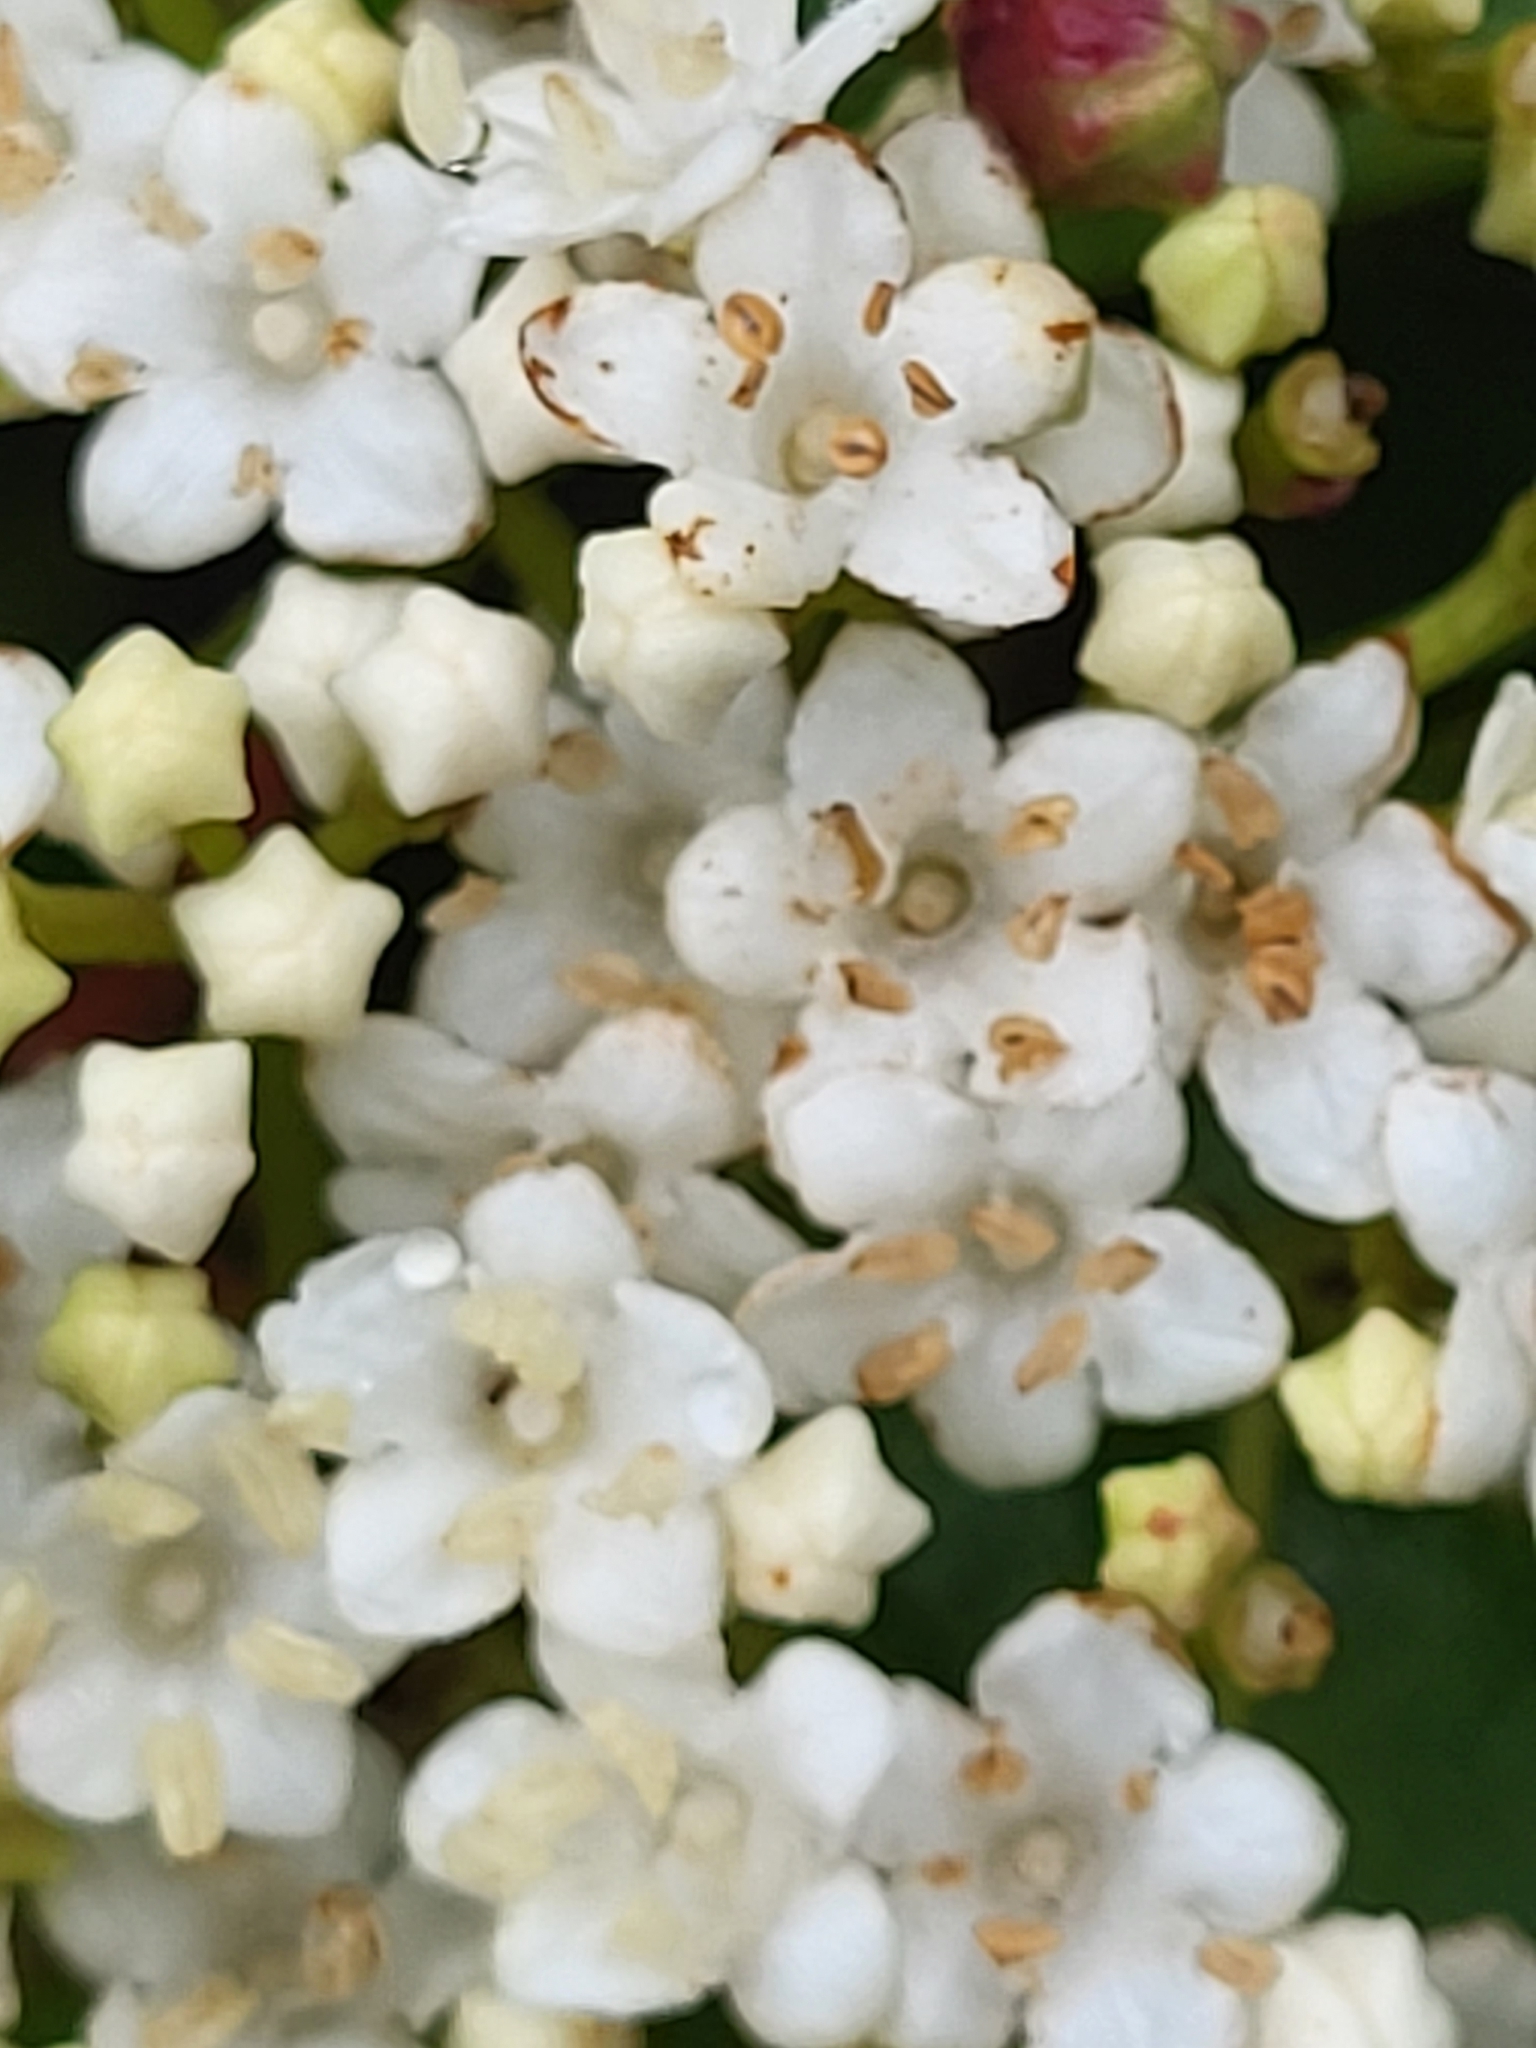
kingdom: Plantae
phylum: Tracheophyta
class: Magnoliopsida
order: Dipsacales
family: Viburnaceae
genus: Viburnum
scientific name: Viburnum rugosum
